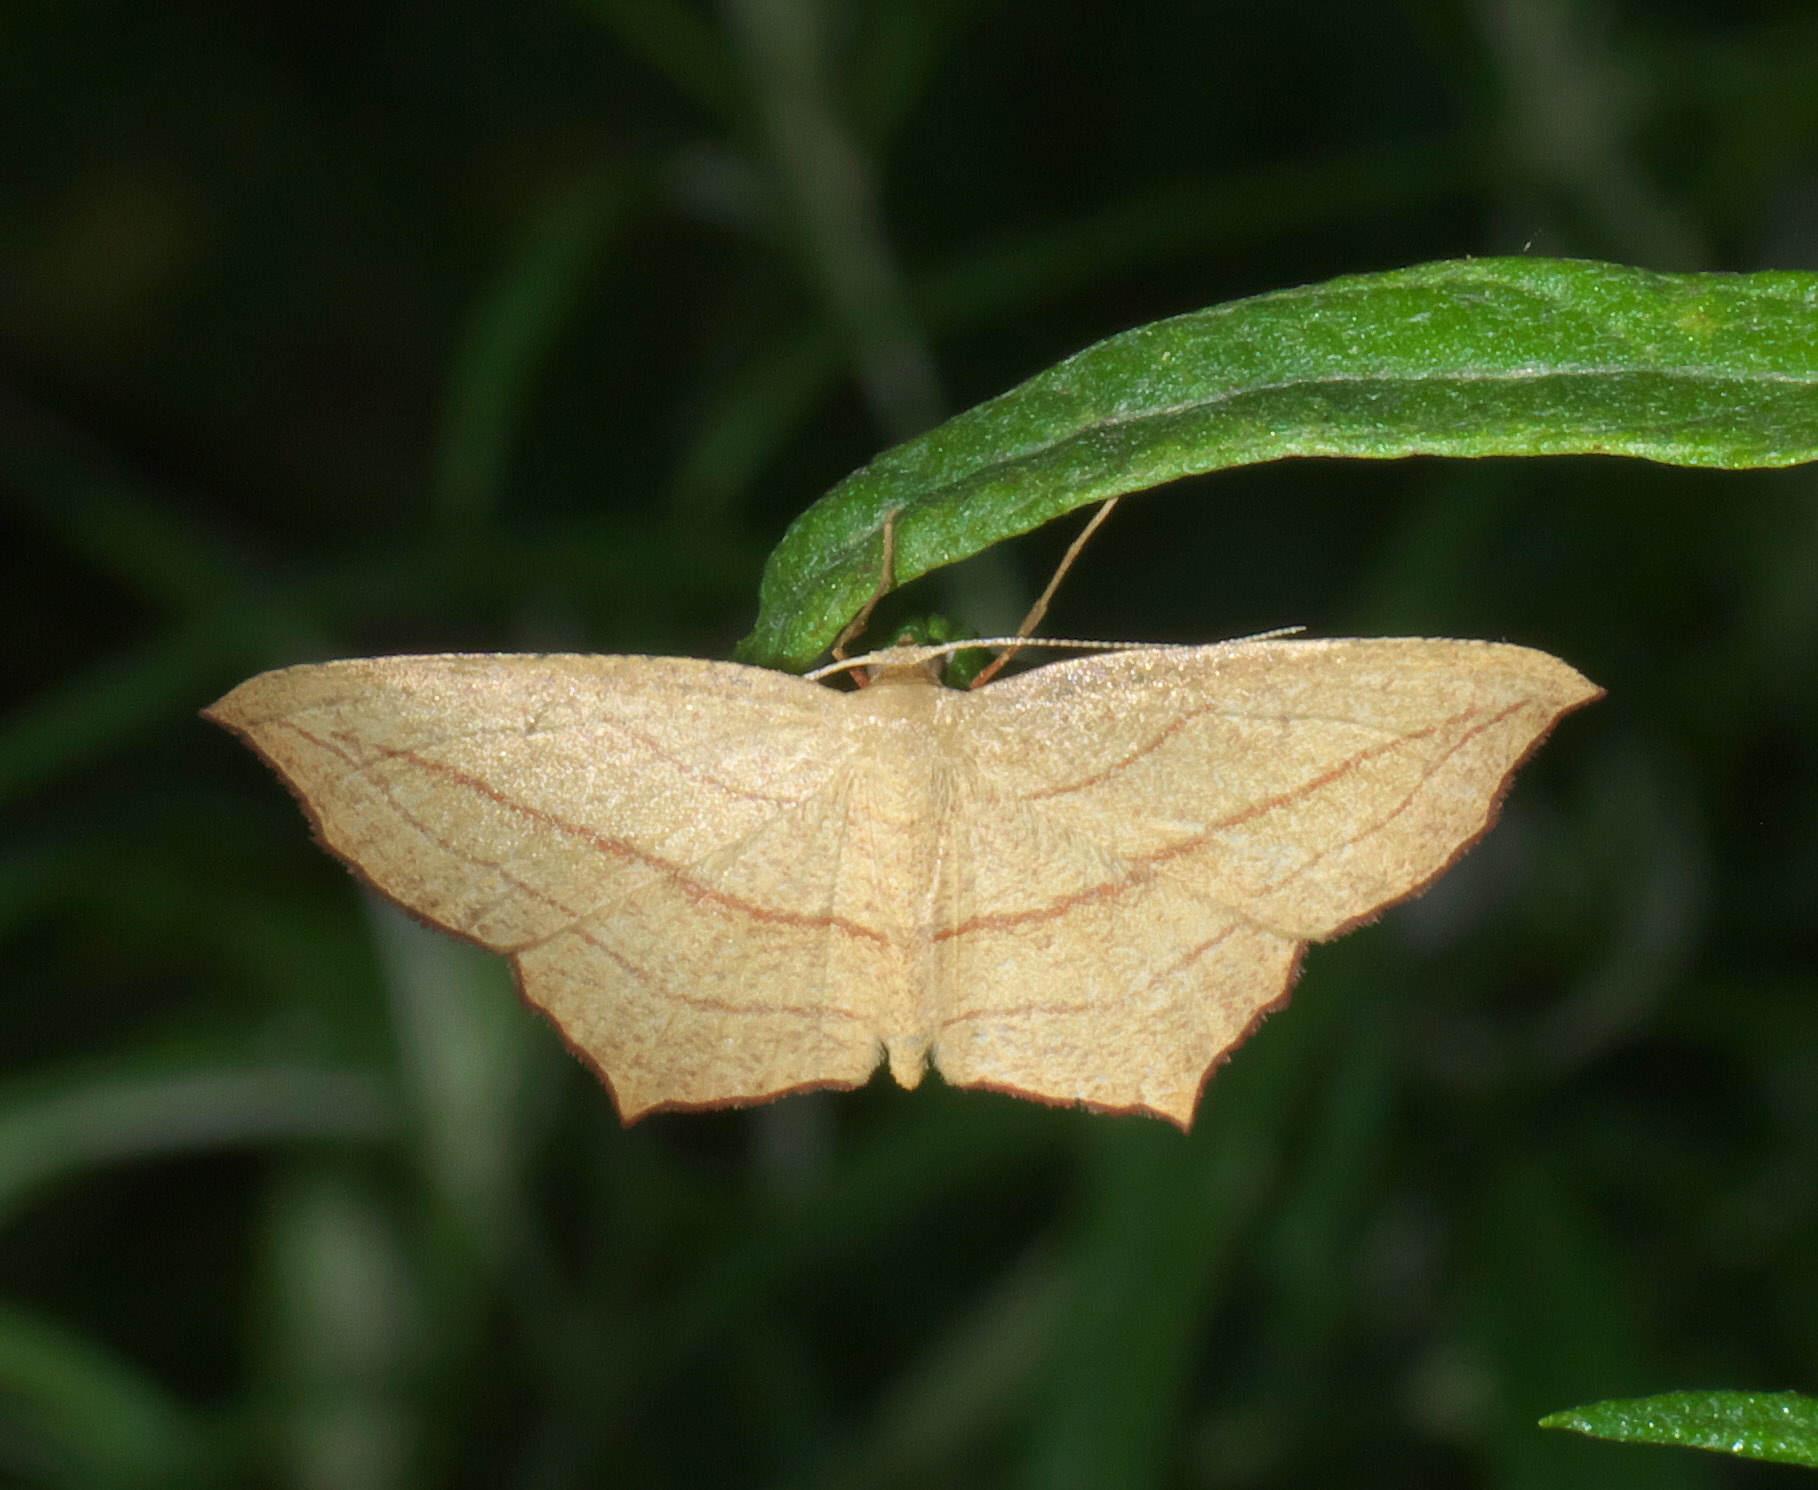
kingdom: Animalia
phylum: Arthropoda
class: Insecta
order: Lepidoptera
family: Geometridae
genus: Timandra
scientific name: Timandra amaturaria
